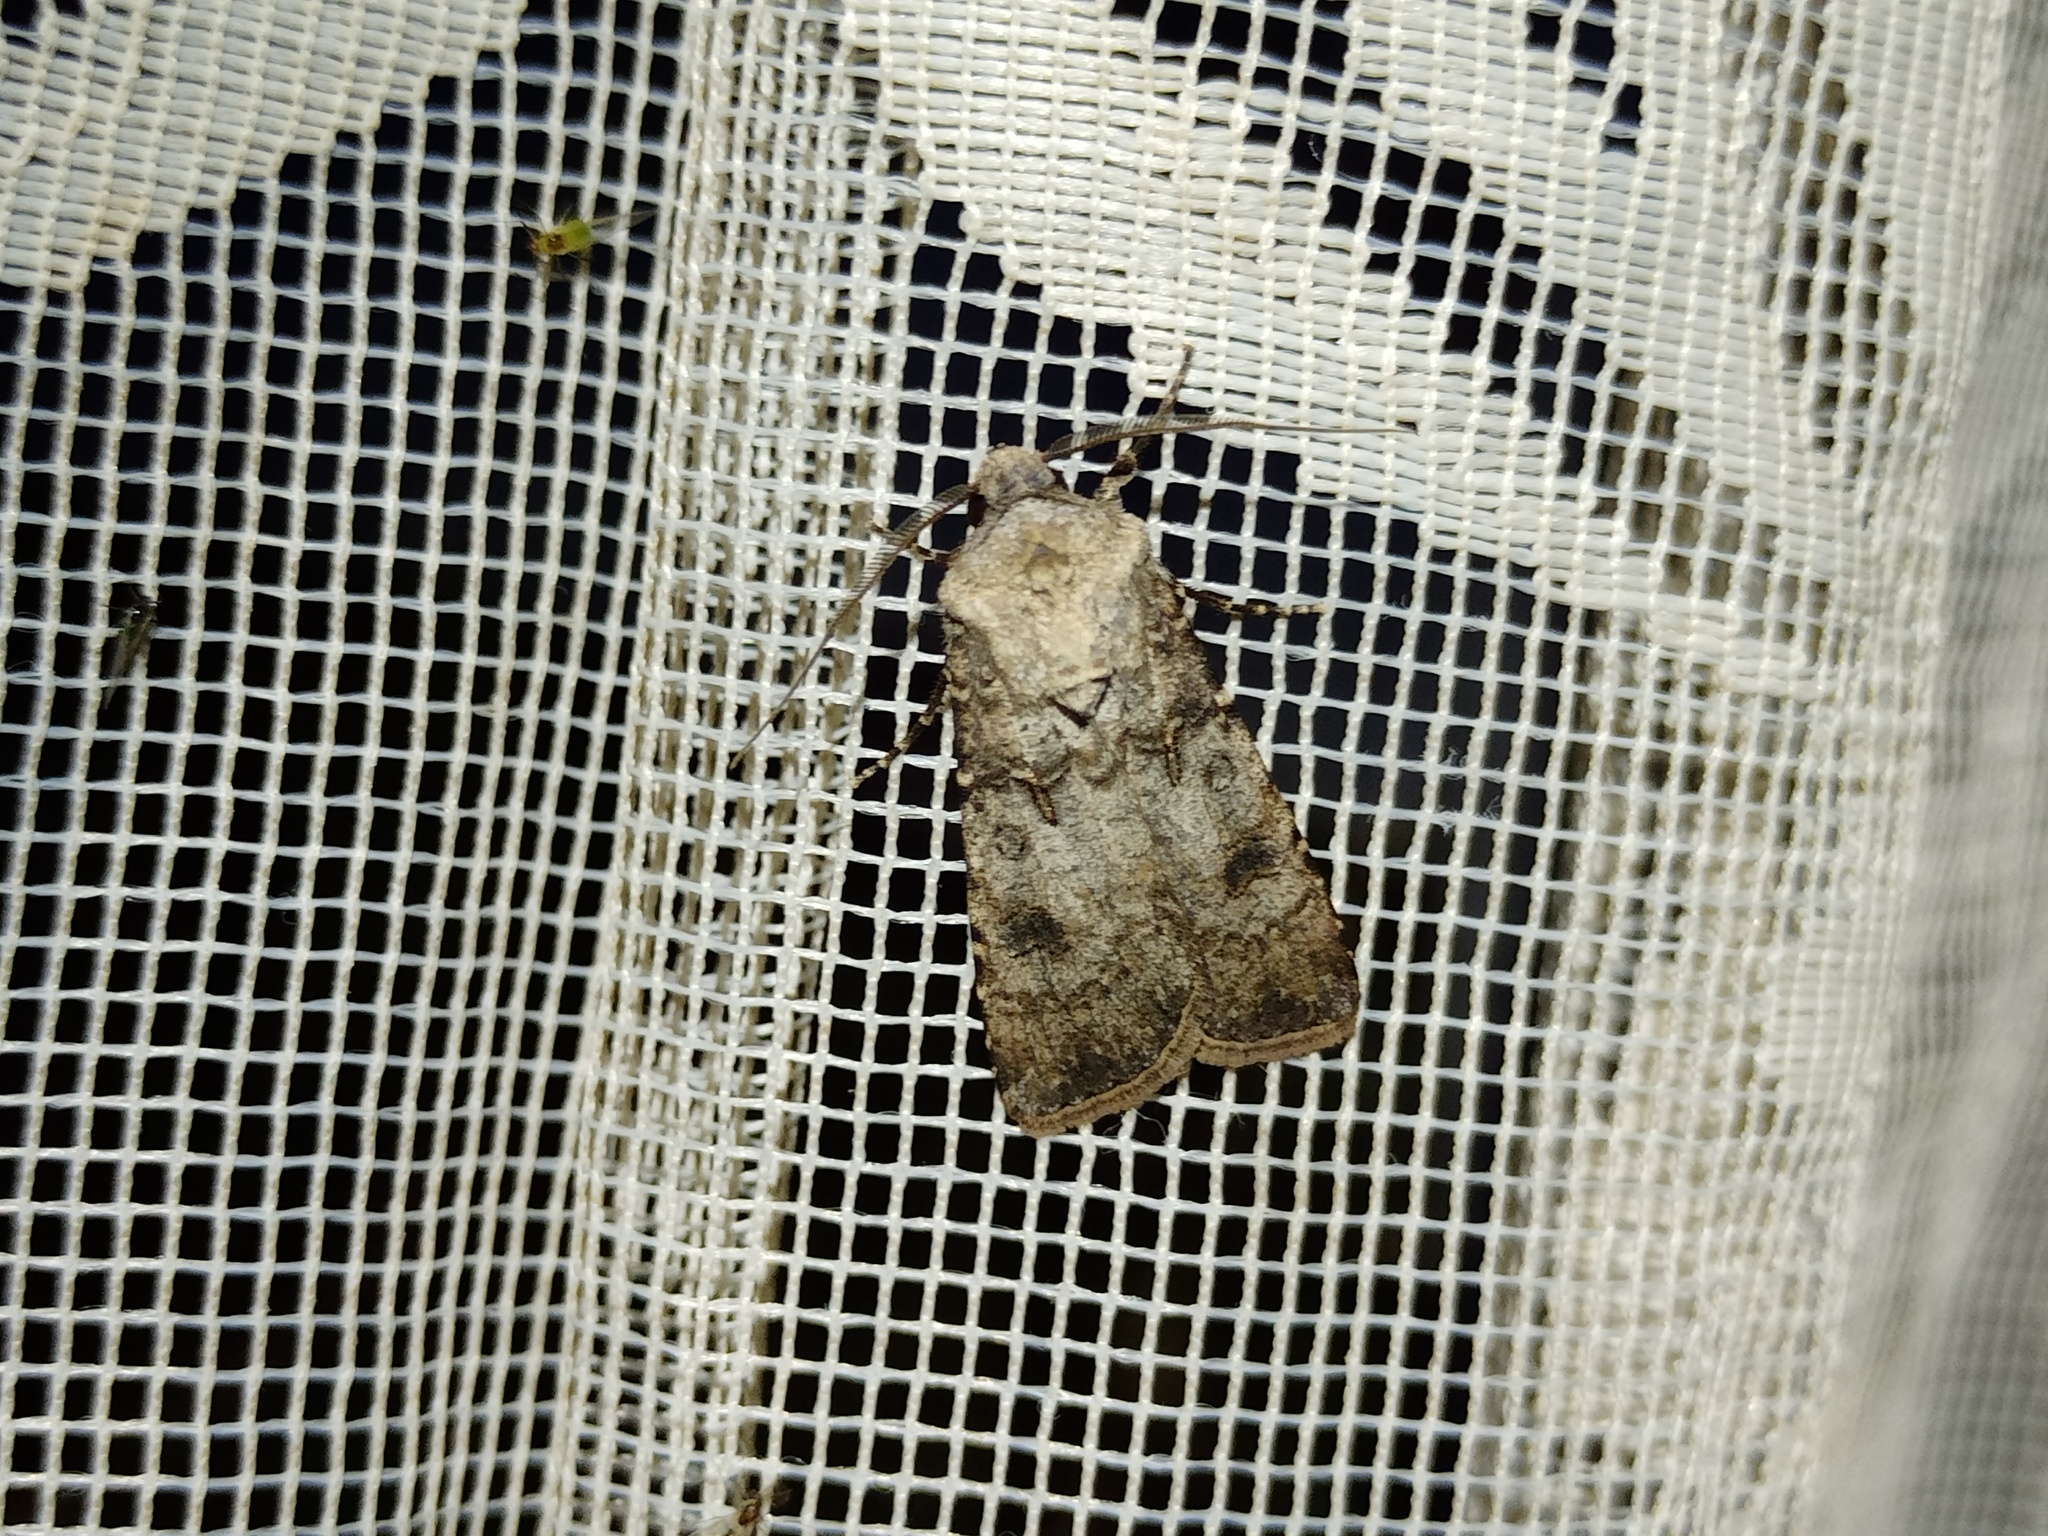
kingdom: Animalia
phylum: Arthropoda
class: Insecta
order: Lepidoptera
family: Noctuidae
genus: Agrotis
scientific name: Agrotis segetum
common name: Turnip moth
